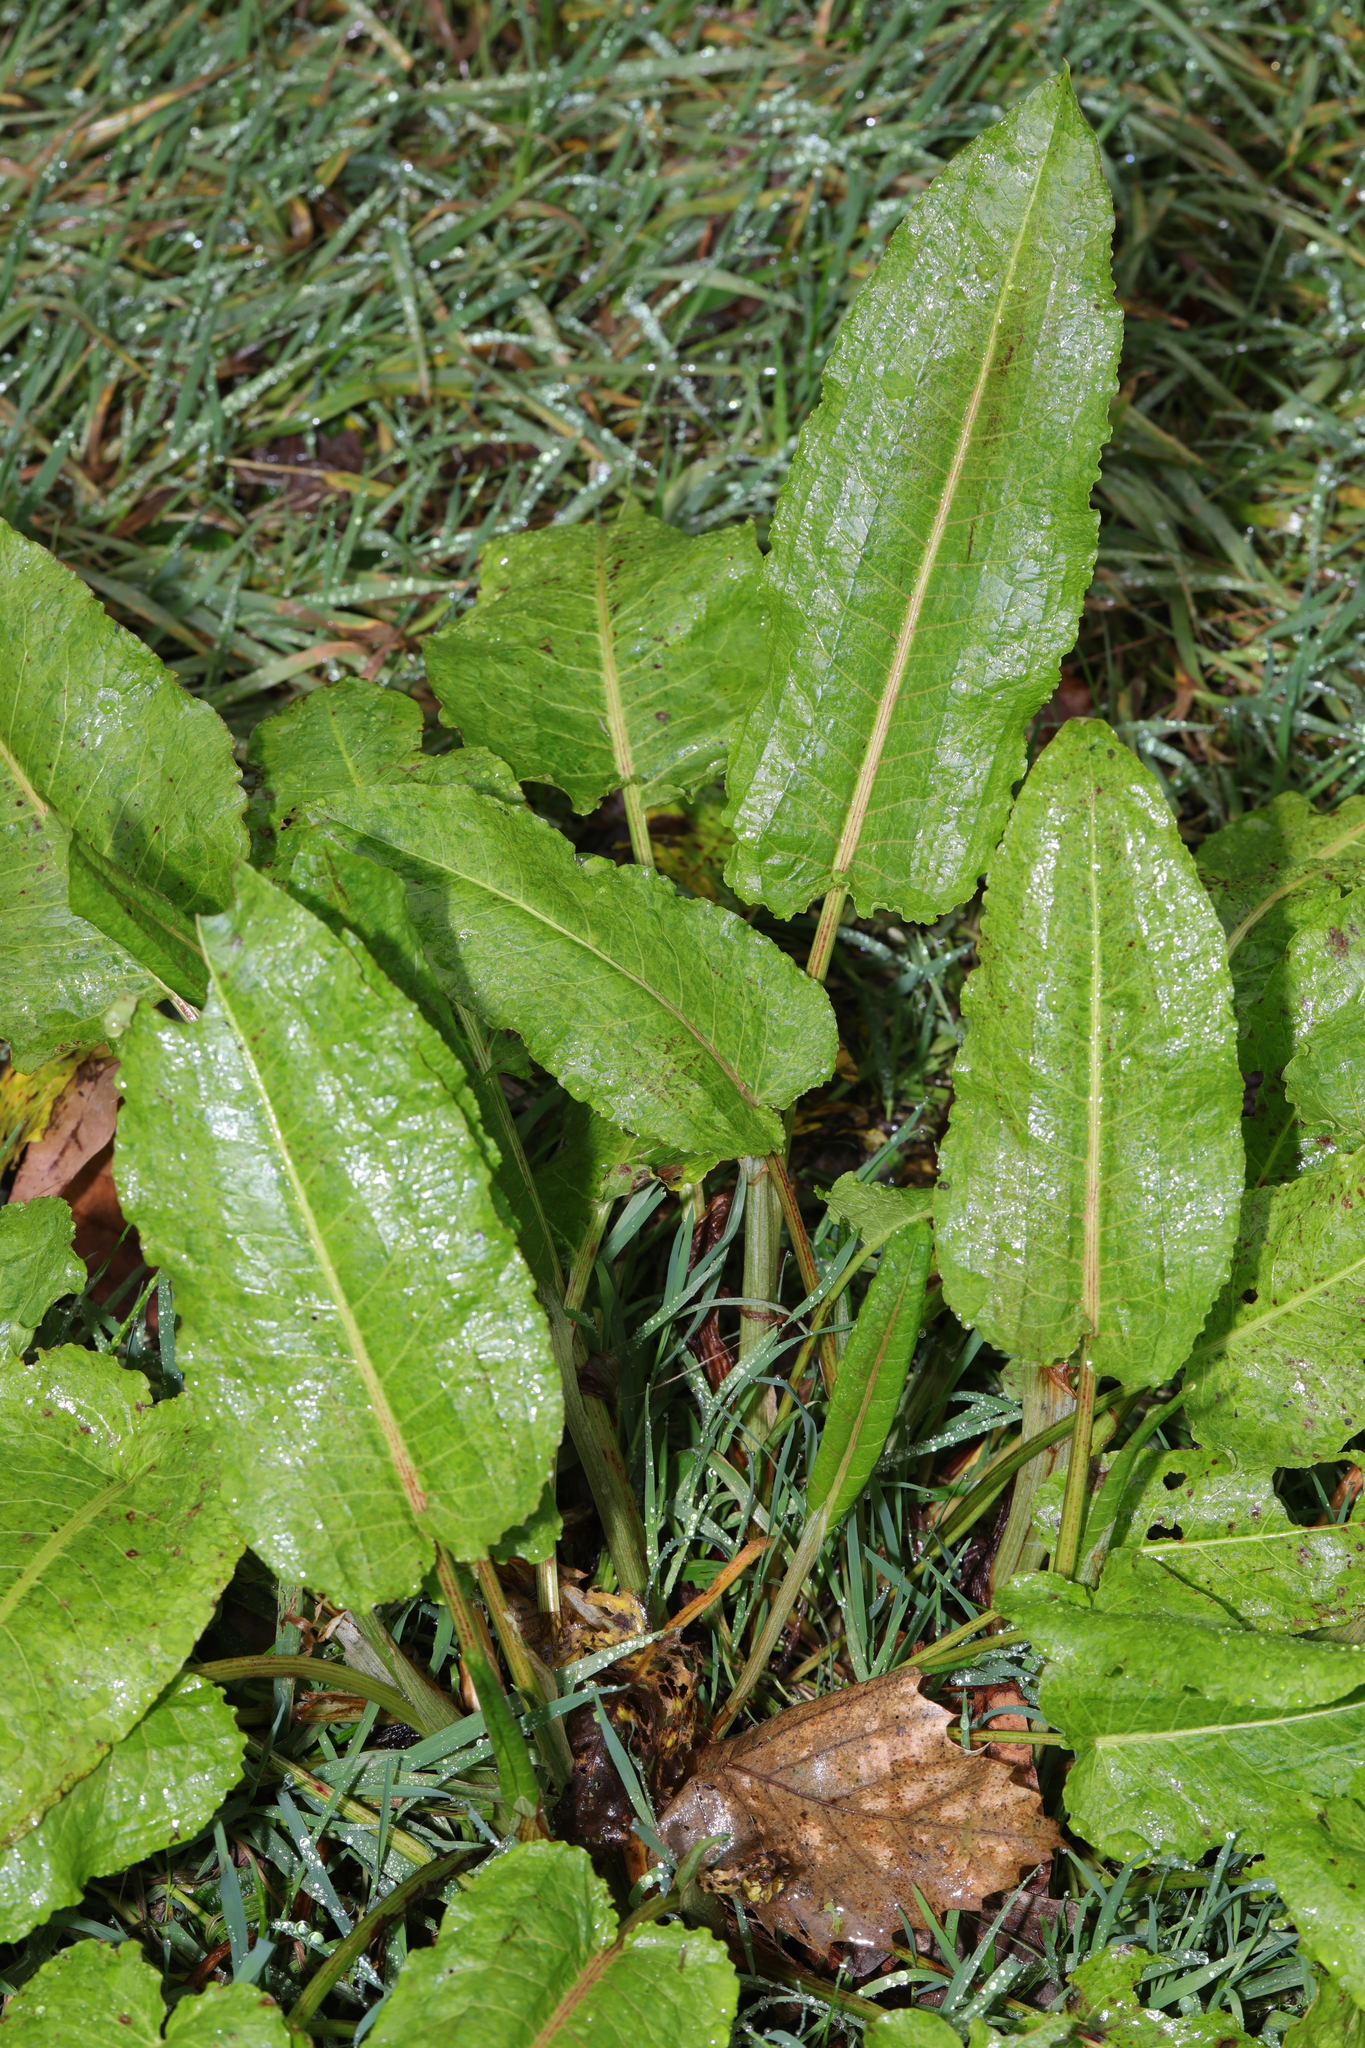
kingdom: Plantae
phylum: Tracheophyta
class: Magnoliopsida
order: Caryophyllales
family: Polygonaceae
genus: Rumex
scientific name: Rumex obtusifolius
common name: Bitter dock
